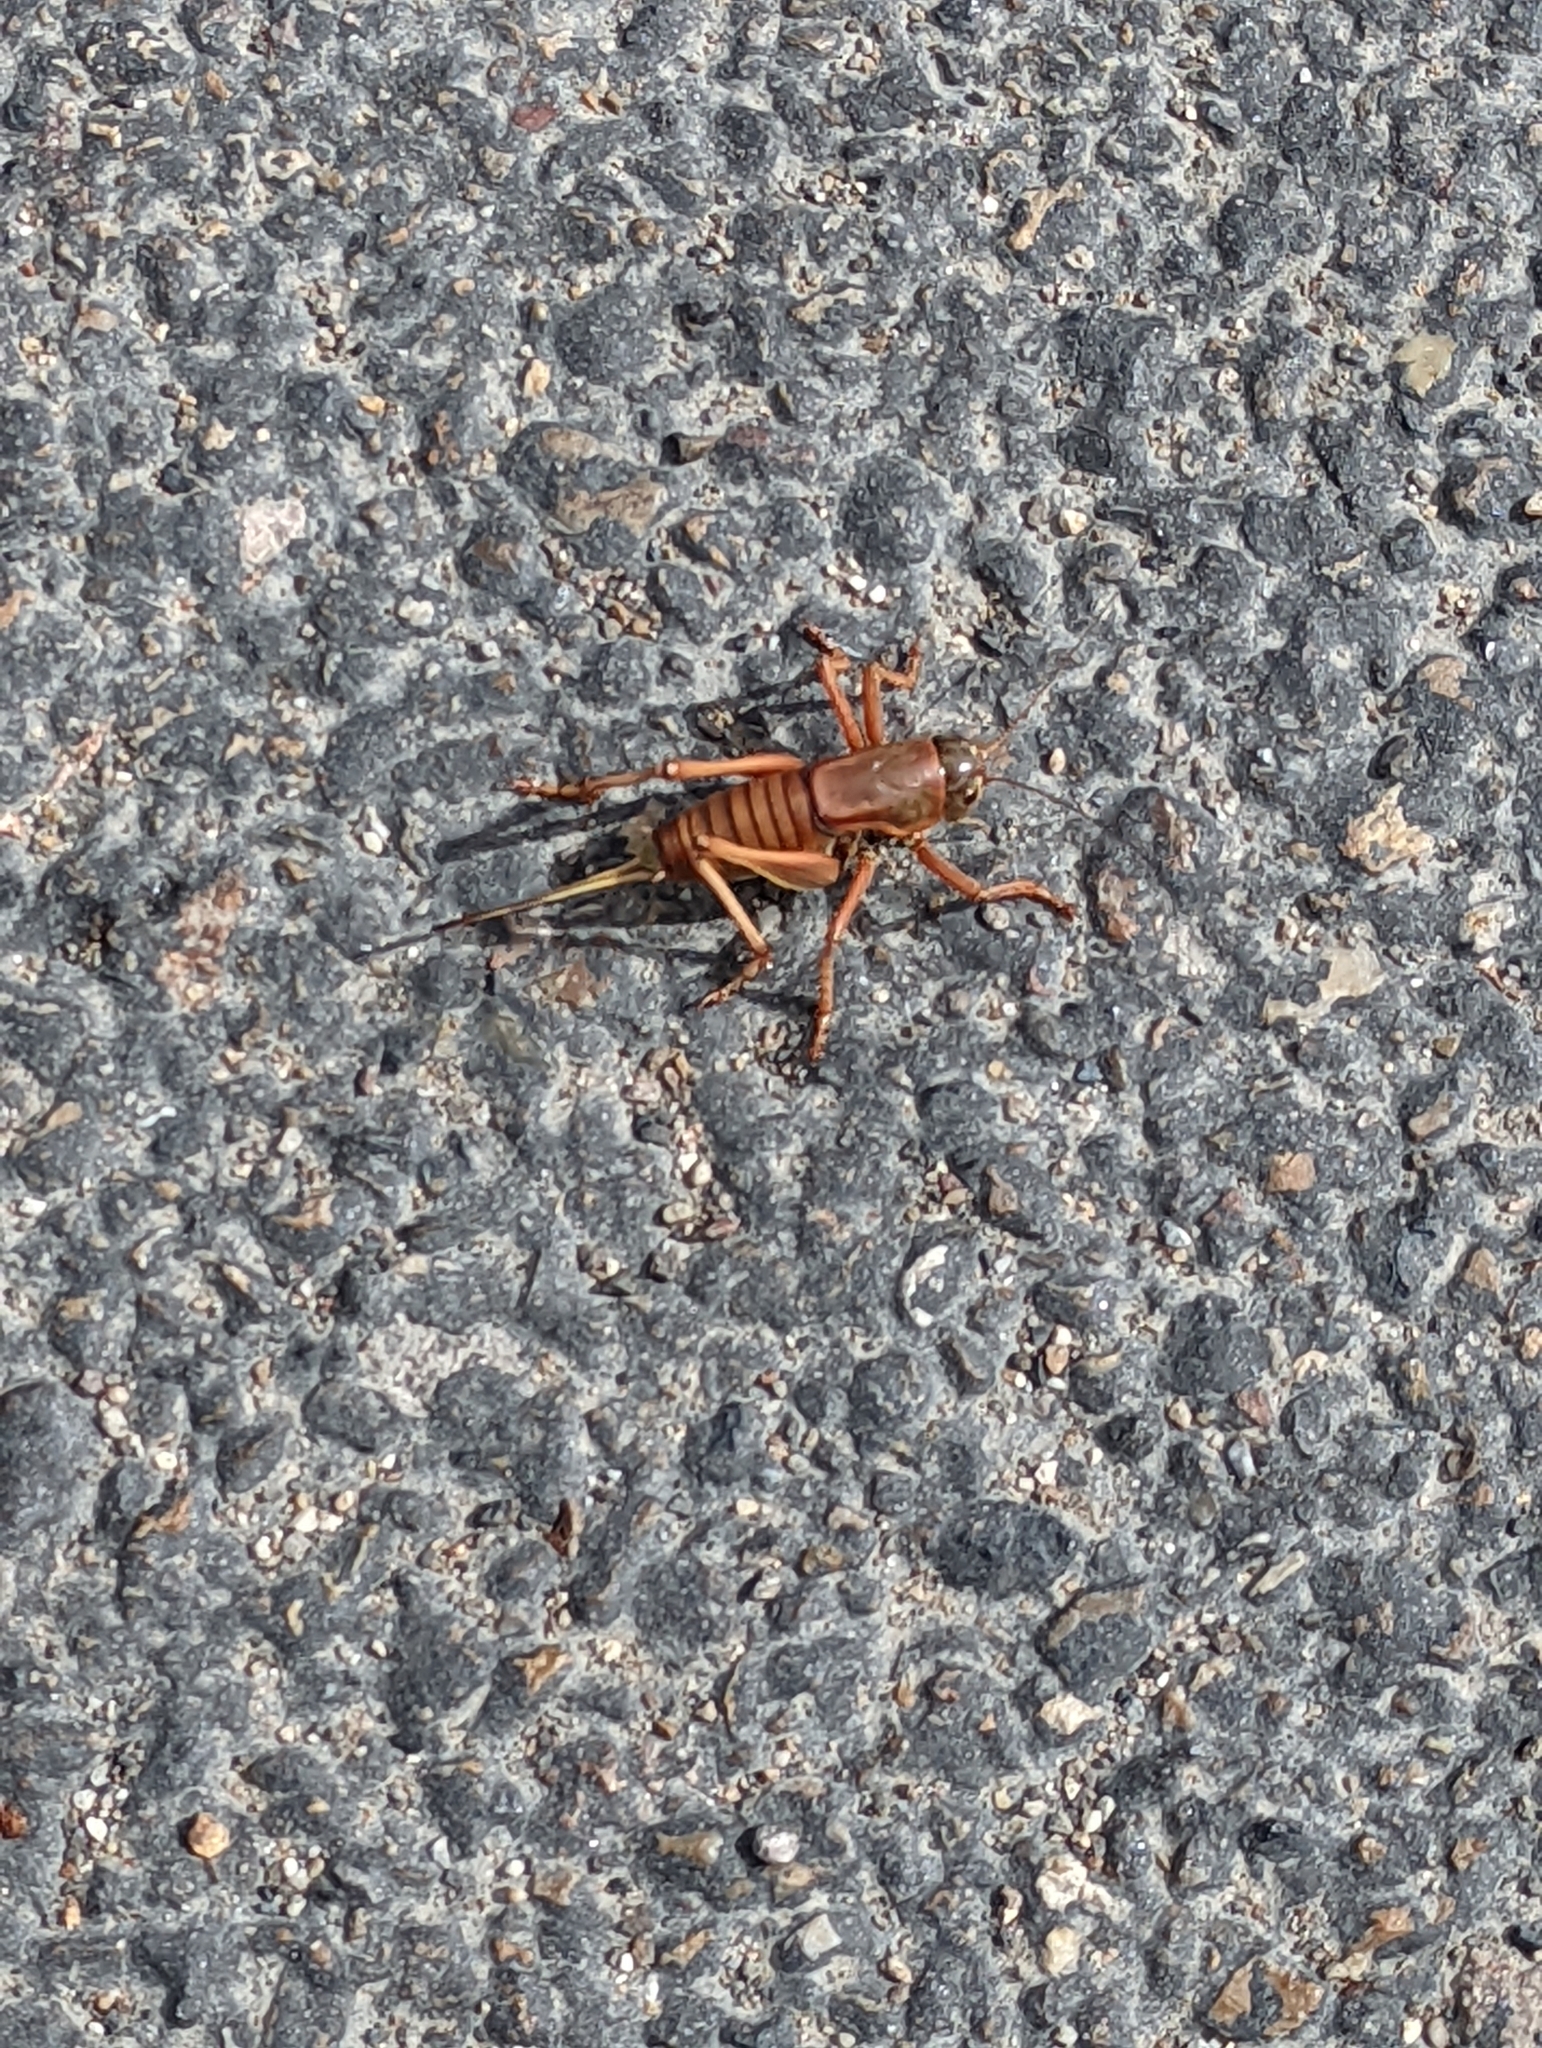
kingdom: Animalia
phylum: Arthropoda
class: Insecta
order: Orthoptera
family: Tettigoniidae
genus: Anabrus
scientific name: Anabrus simplex
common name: Mormon cricket
